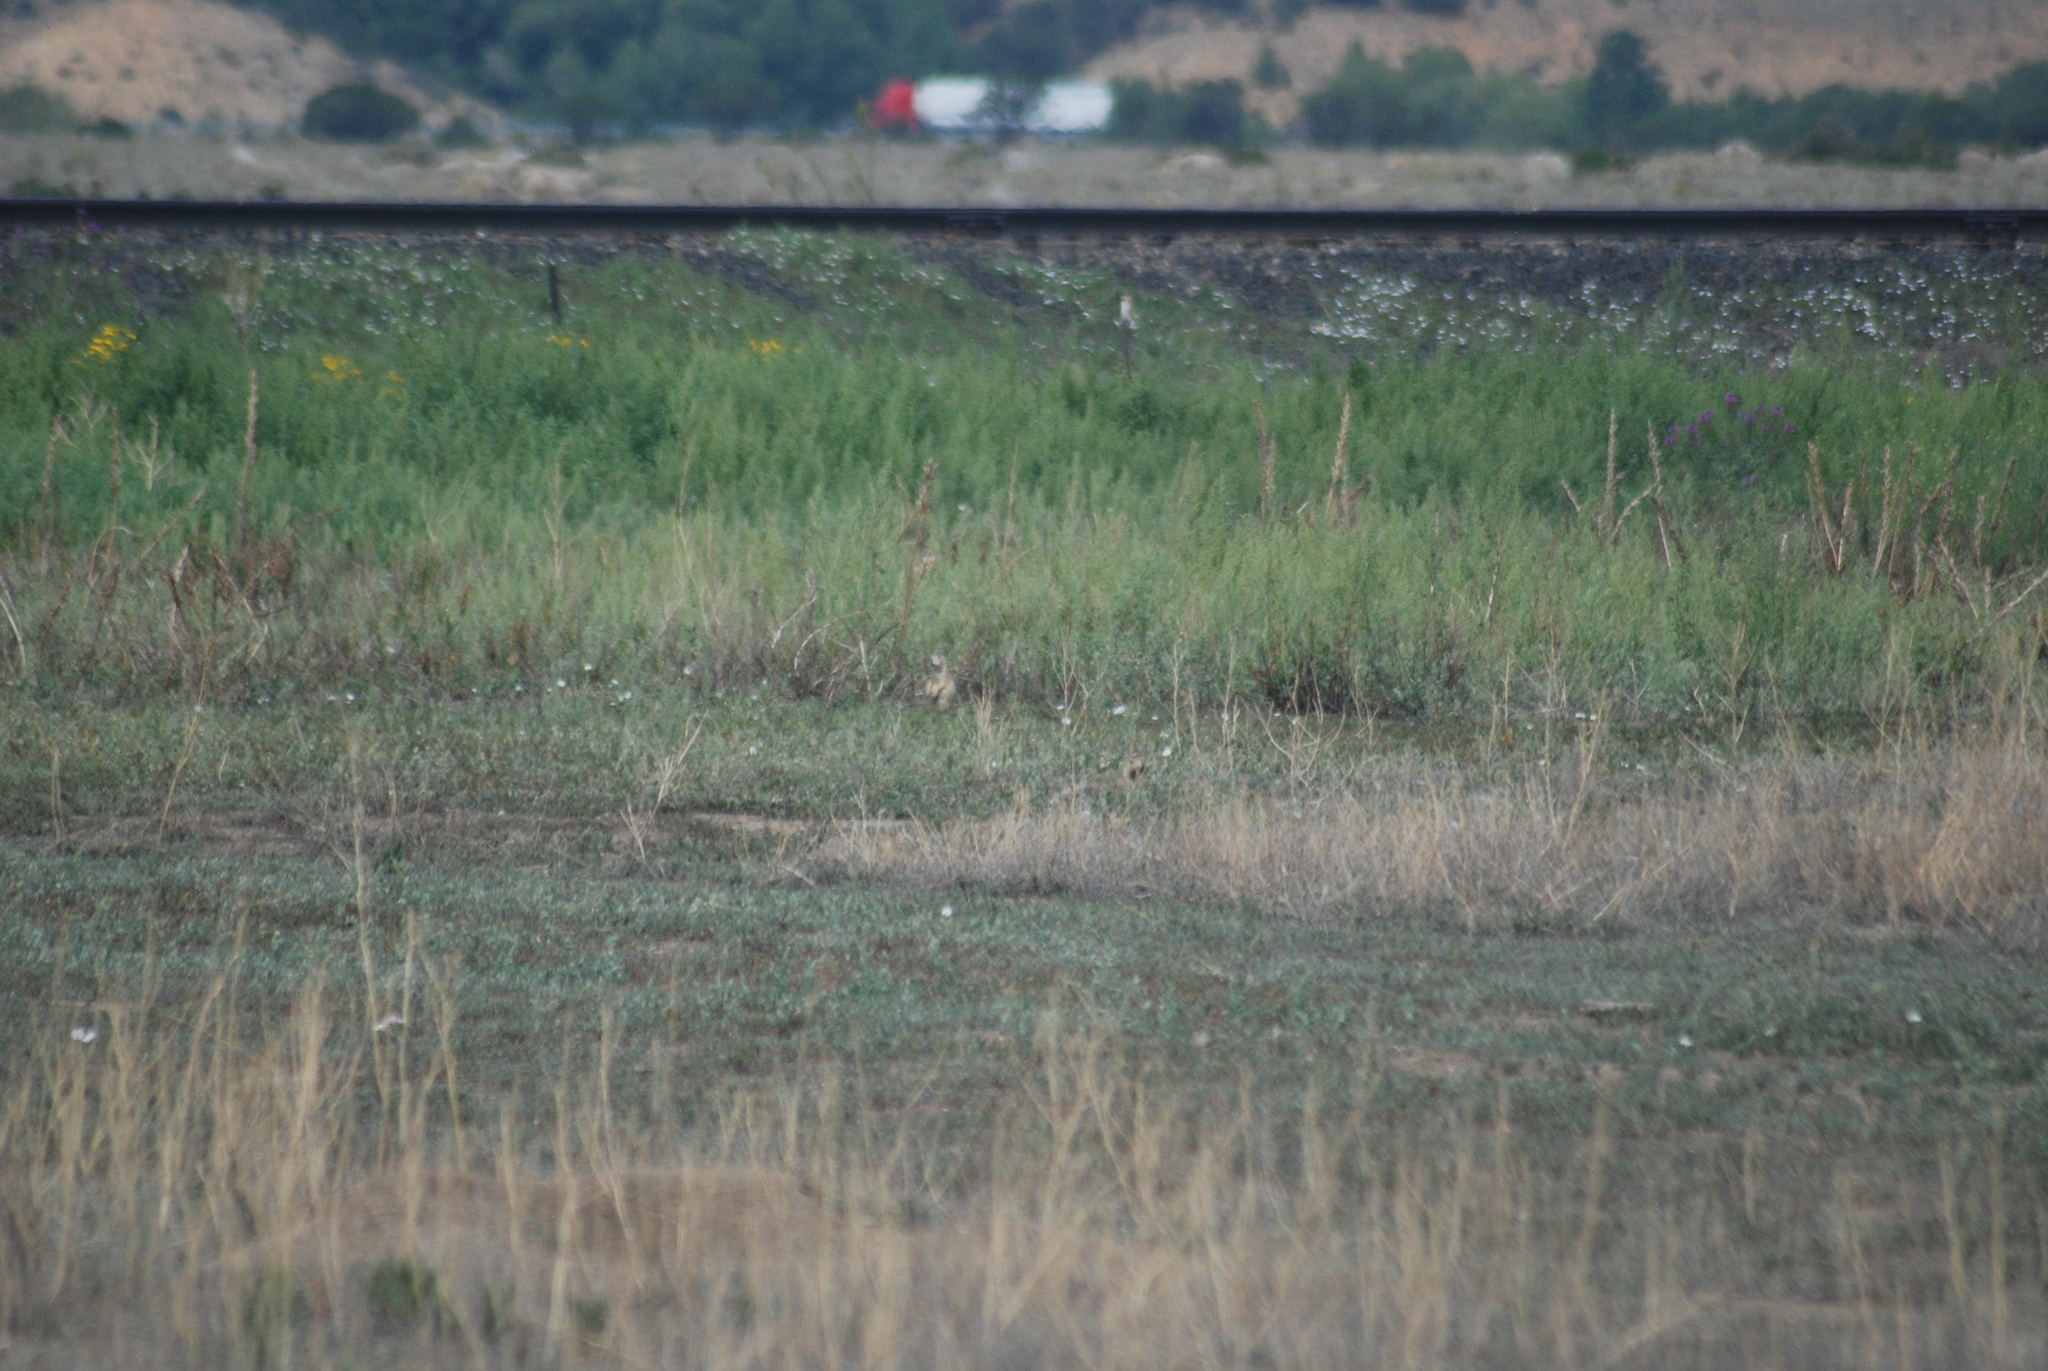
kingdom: Animalia
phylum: Chordata
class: Mammalia
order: Rodentia
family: Sciuridae
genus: Cynomys
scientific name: Cynomys gunnisoni
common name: Gunnison's prairie dog
